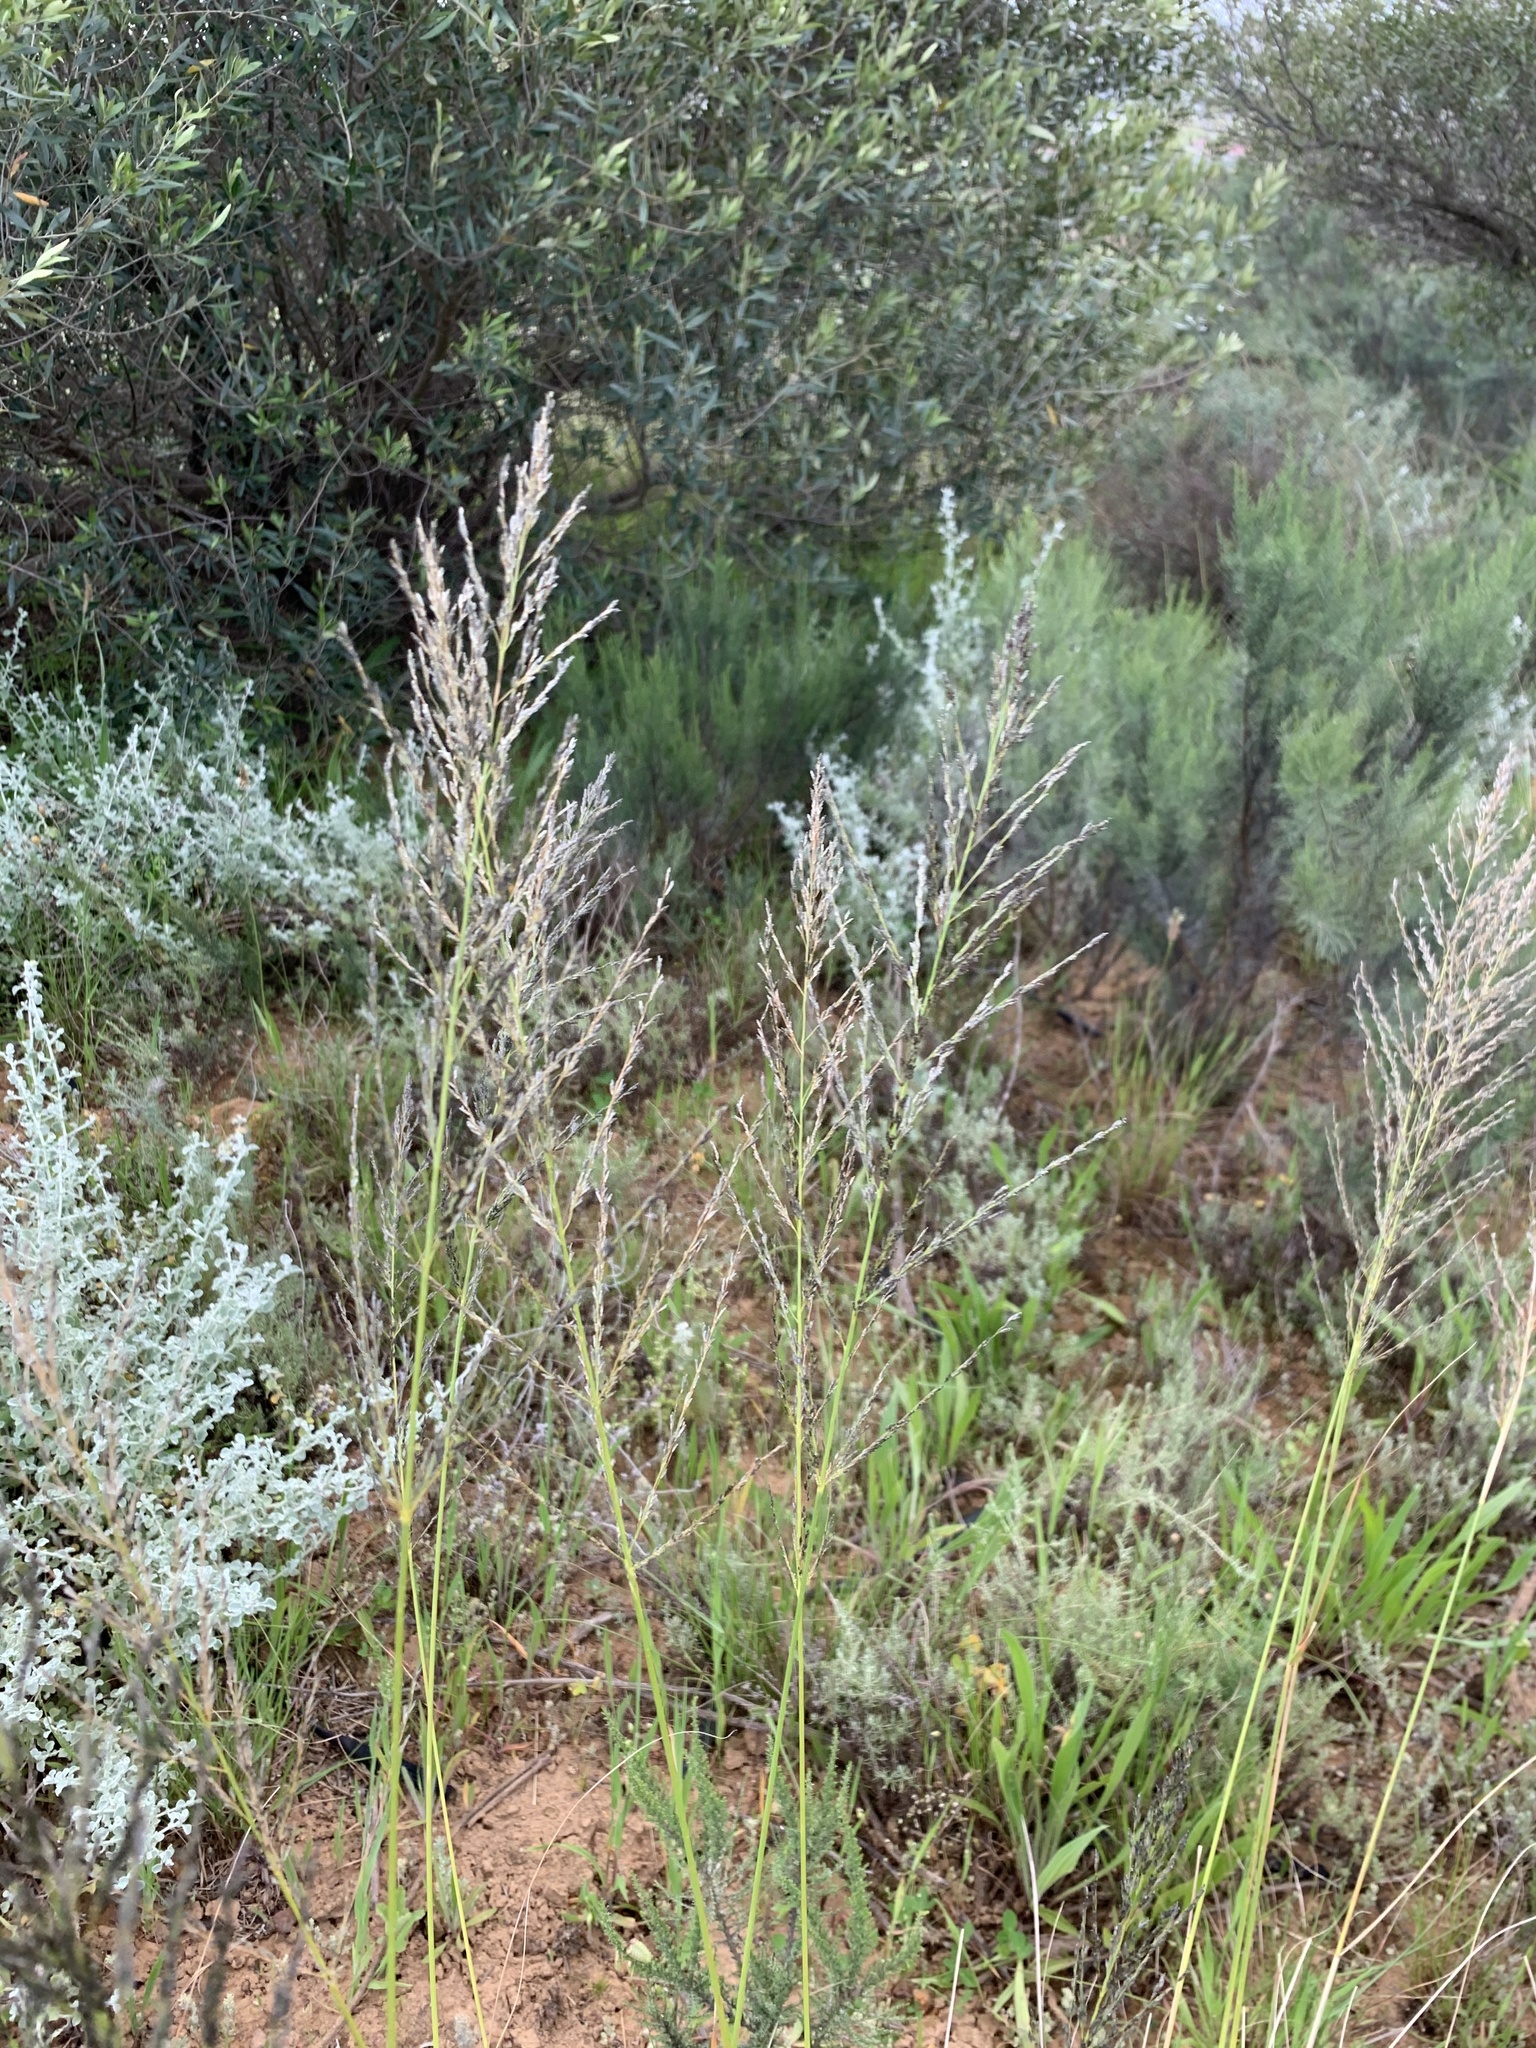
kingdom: Plantae
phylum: Tracheophyta
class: Liliopsida
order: Poales
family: Poaceae
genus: Eragrostis
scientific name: Eragrostis curvula
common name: African love-grass
